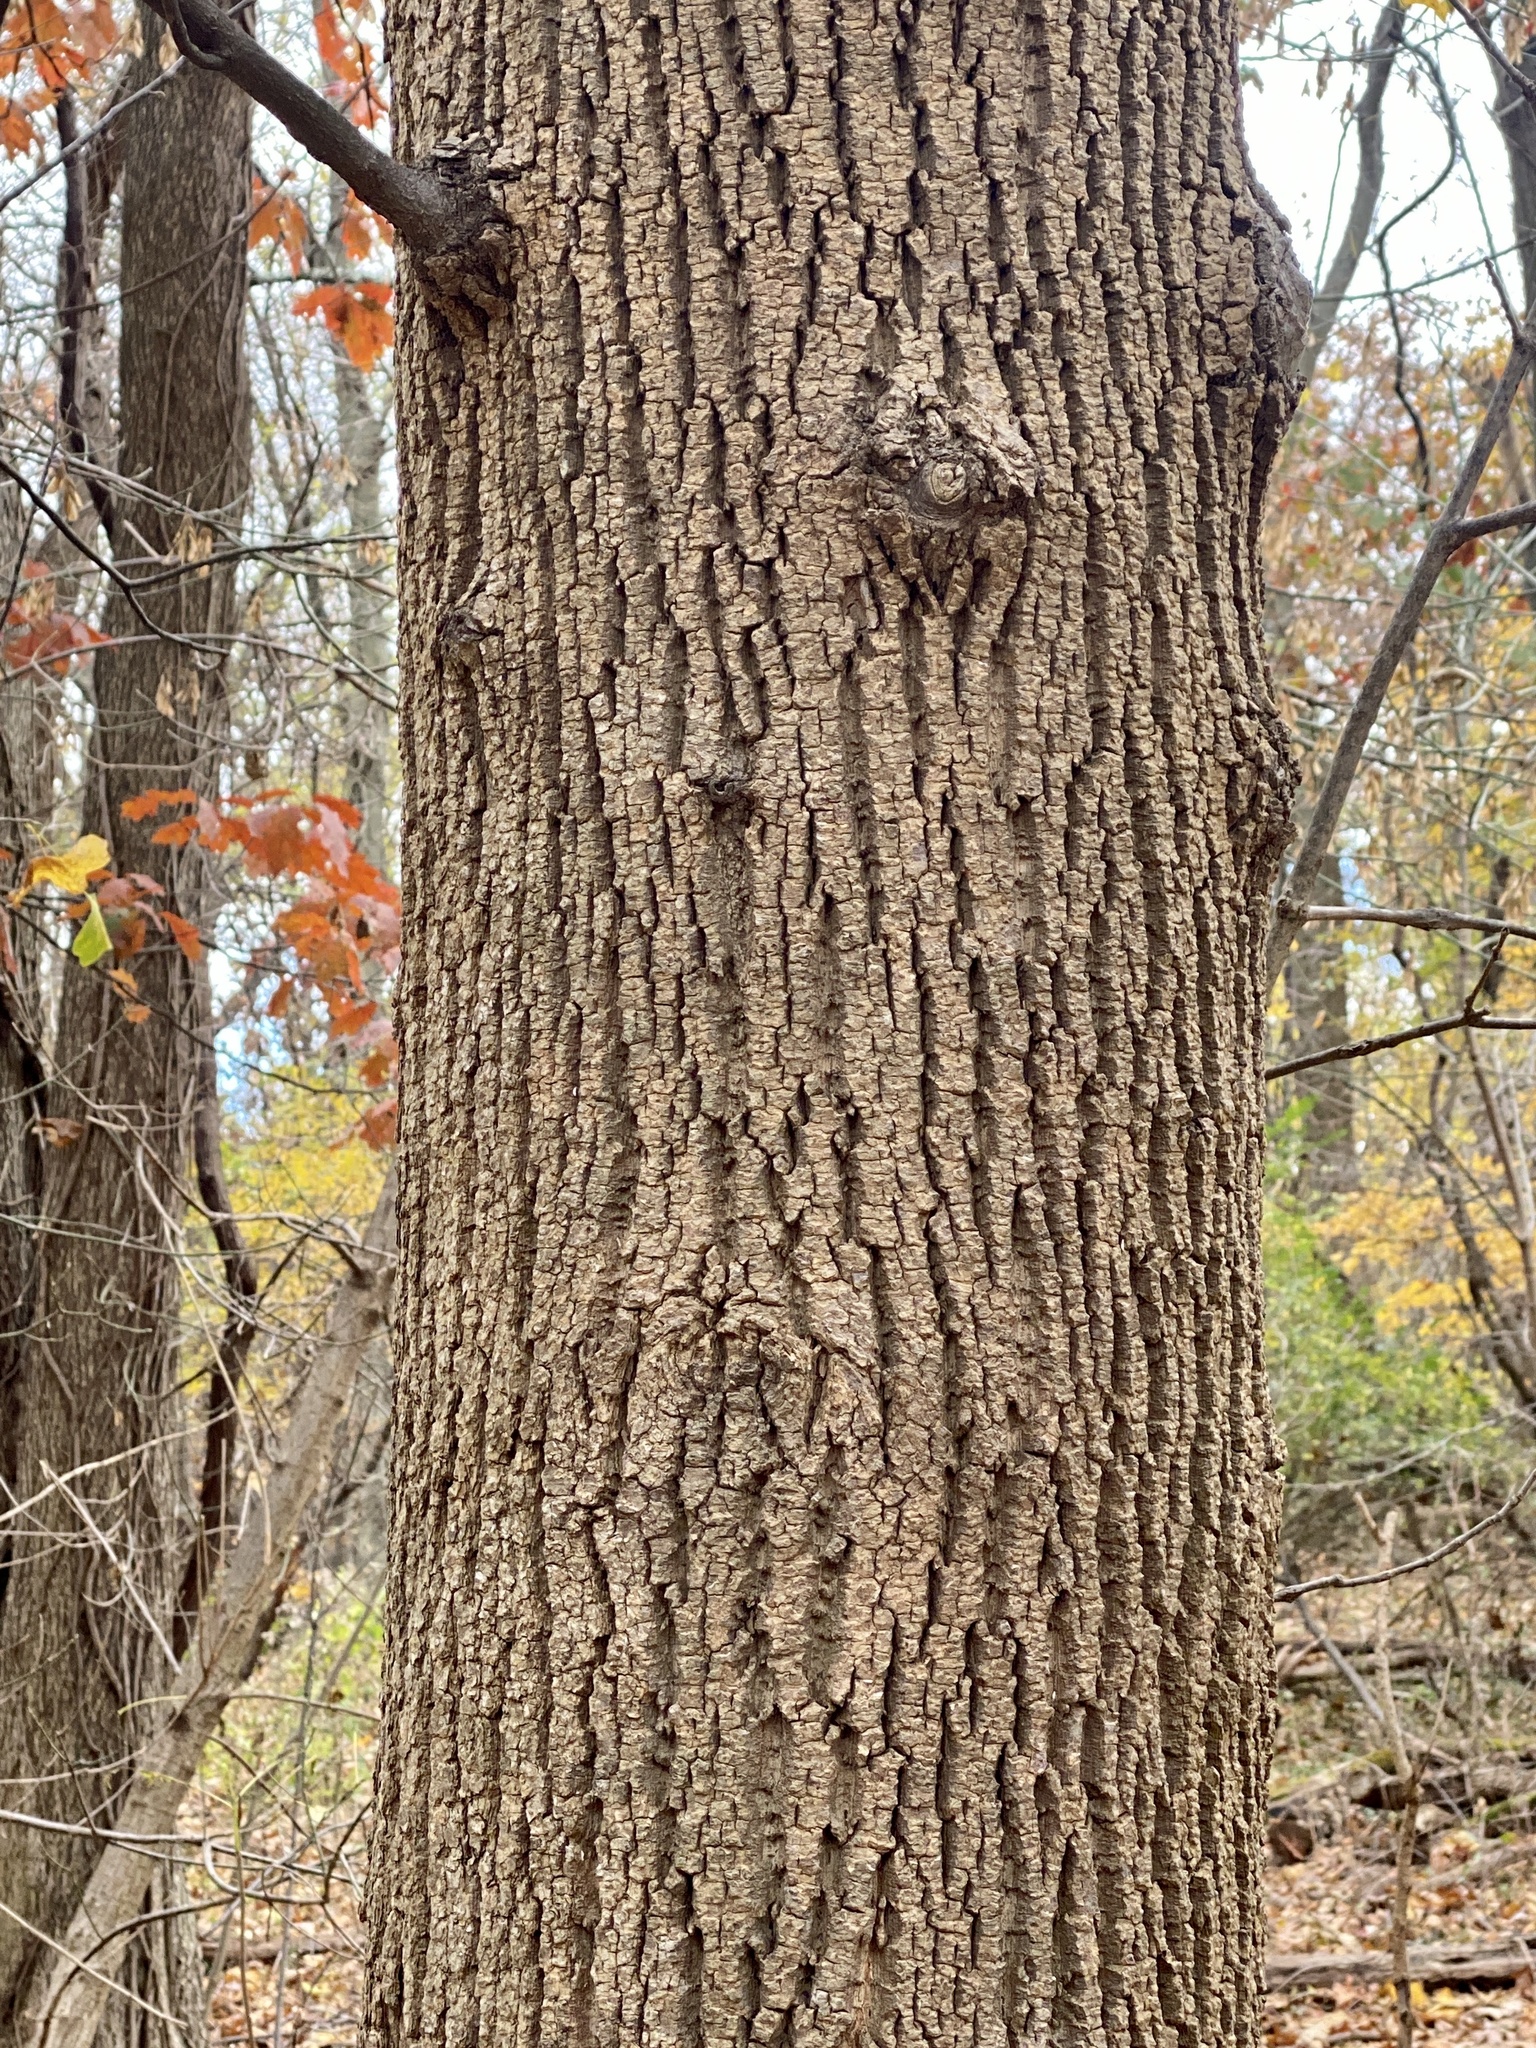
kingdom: Plantae
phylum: Tracheophyta
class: Magnoliopsida
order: Magnoliales
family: Magnoliaceae
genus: Liriodendron
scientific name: Liriodendron tulipifera
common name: Tulip tree
